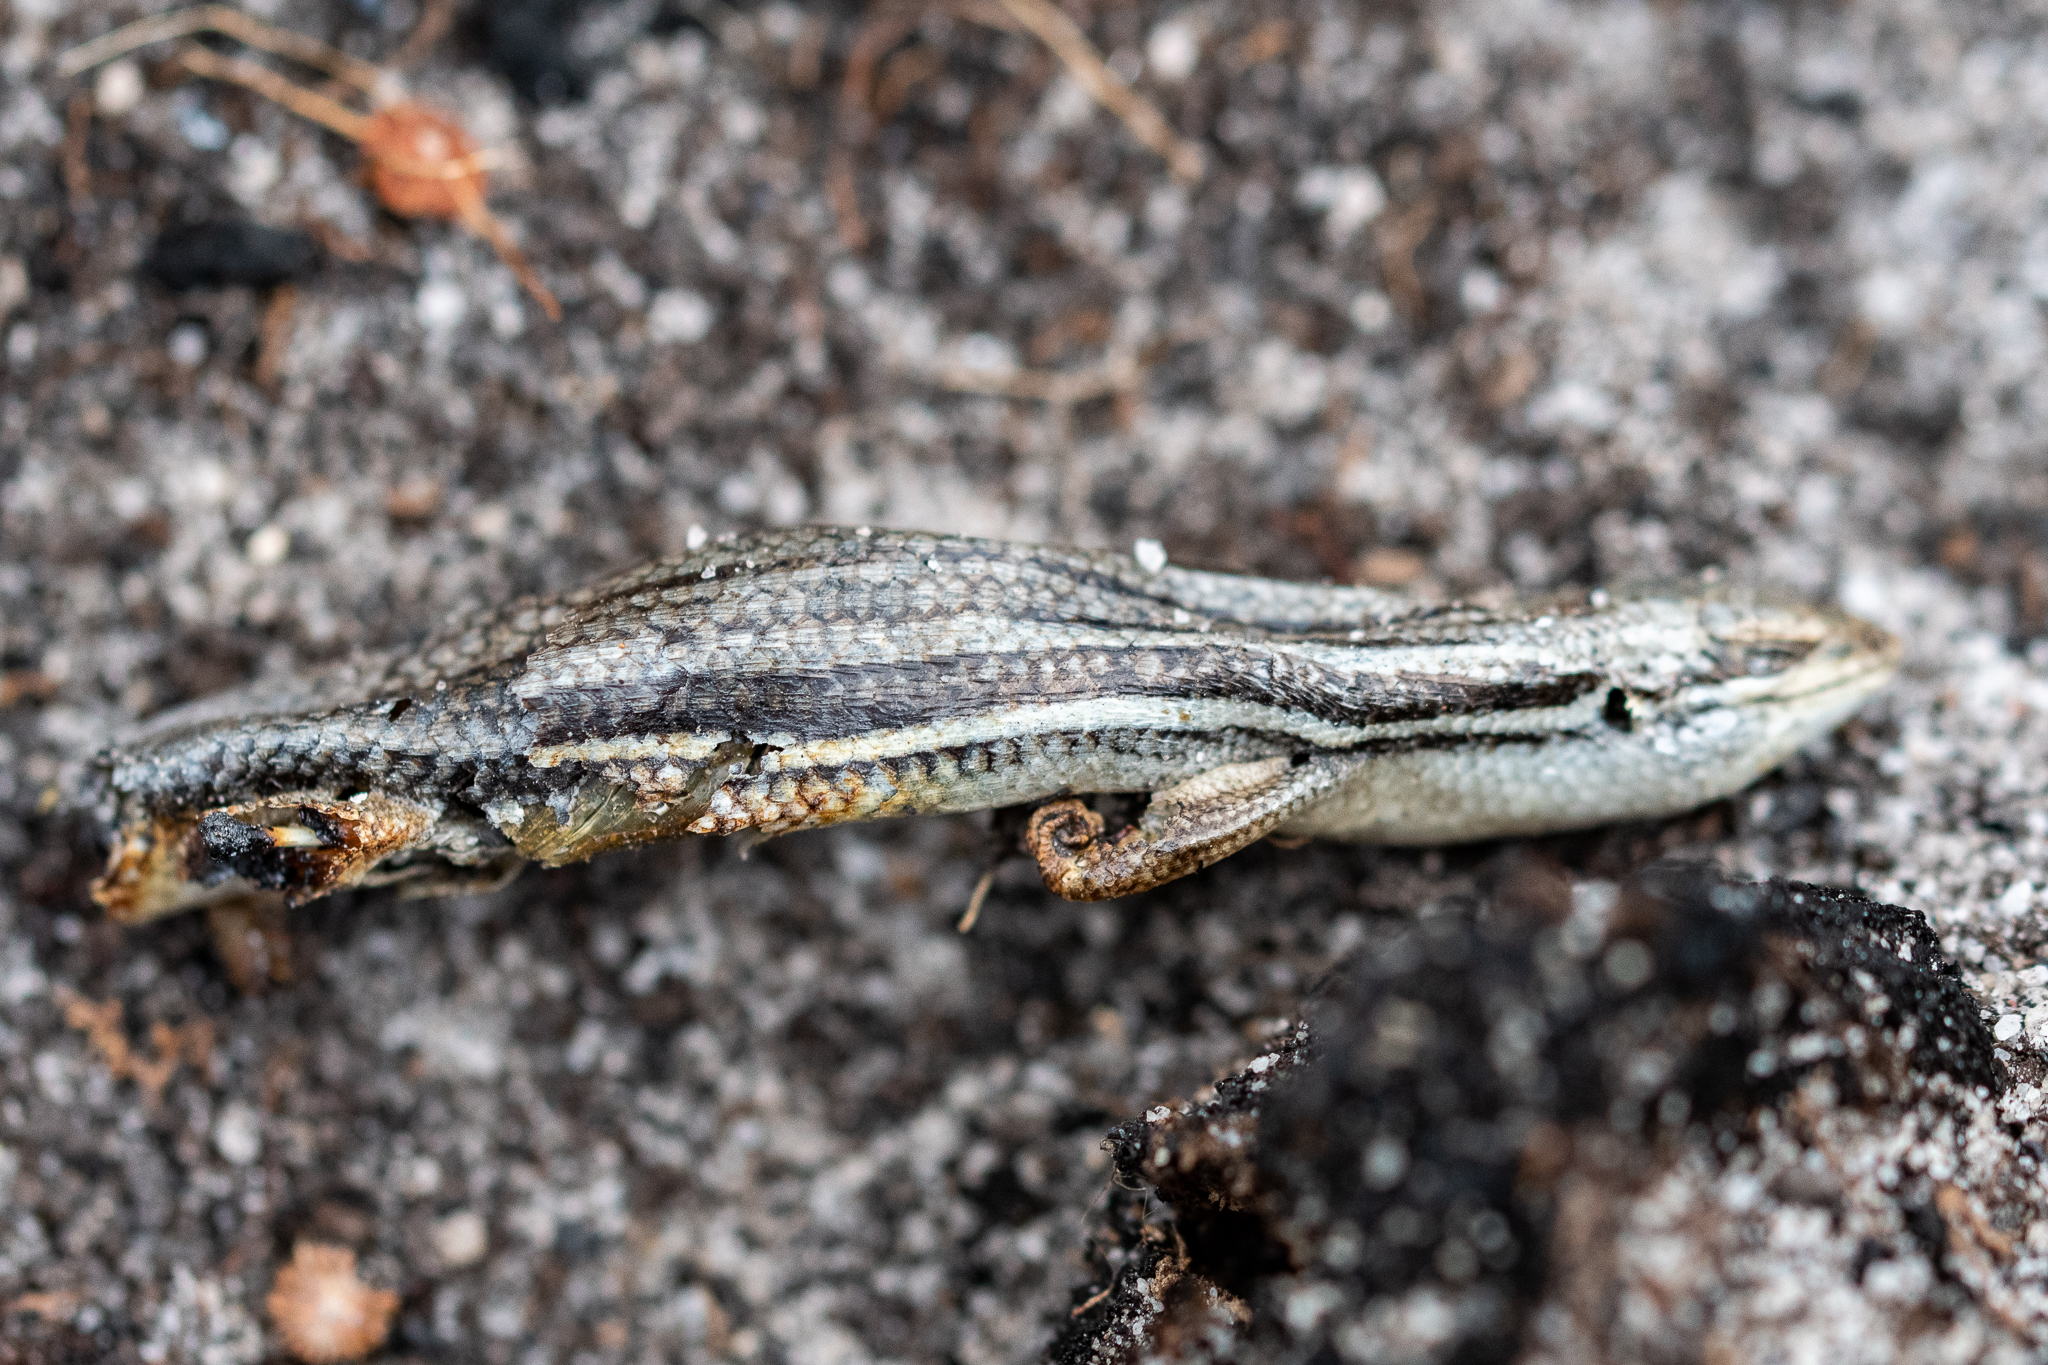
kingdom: Animalia
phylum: Chordata
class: Squamata
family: Scincidae
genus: Trachylepis
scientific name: Trachylepis homalocephala
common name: Red-sided skink
